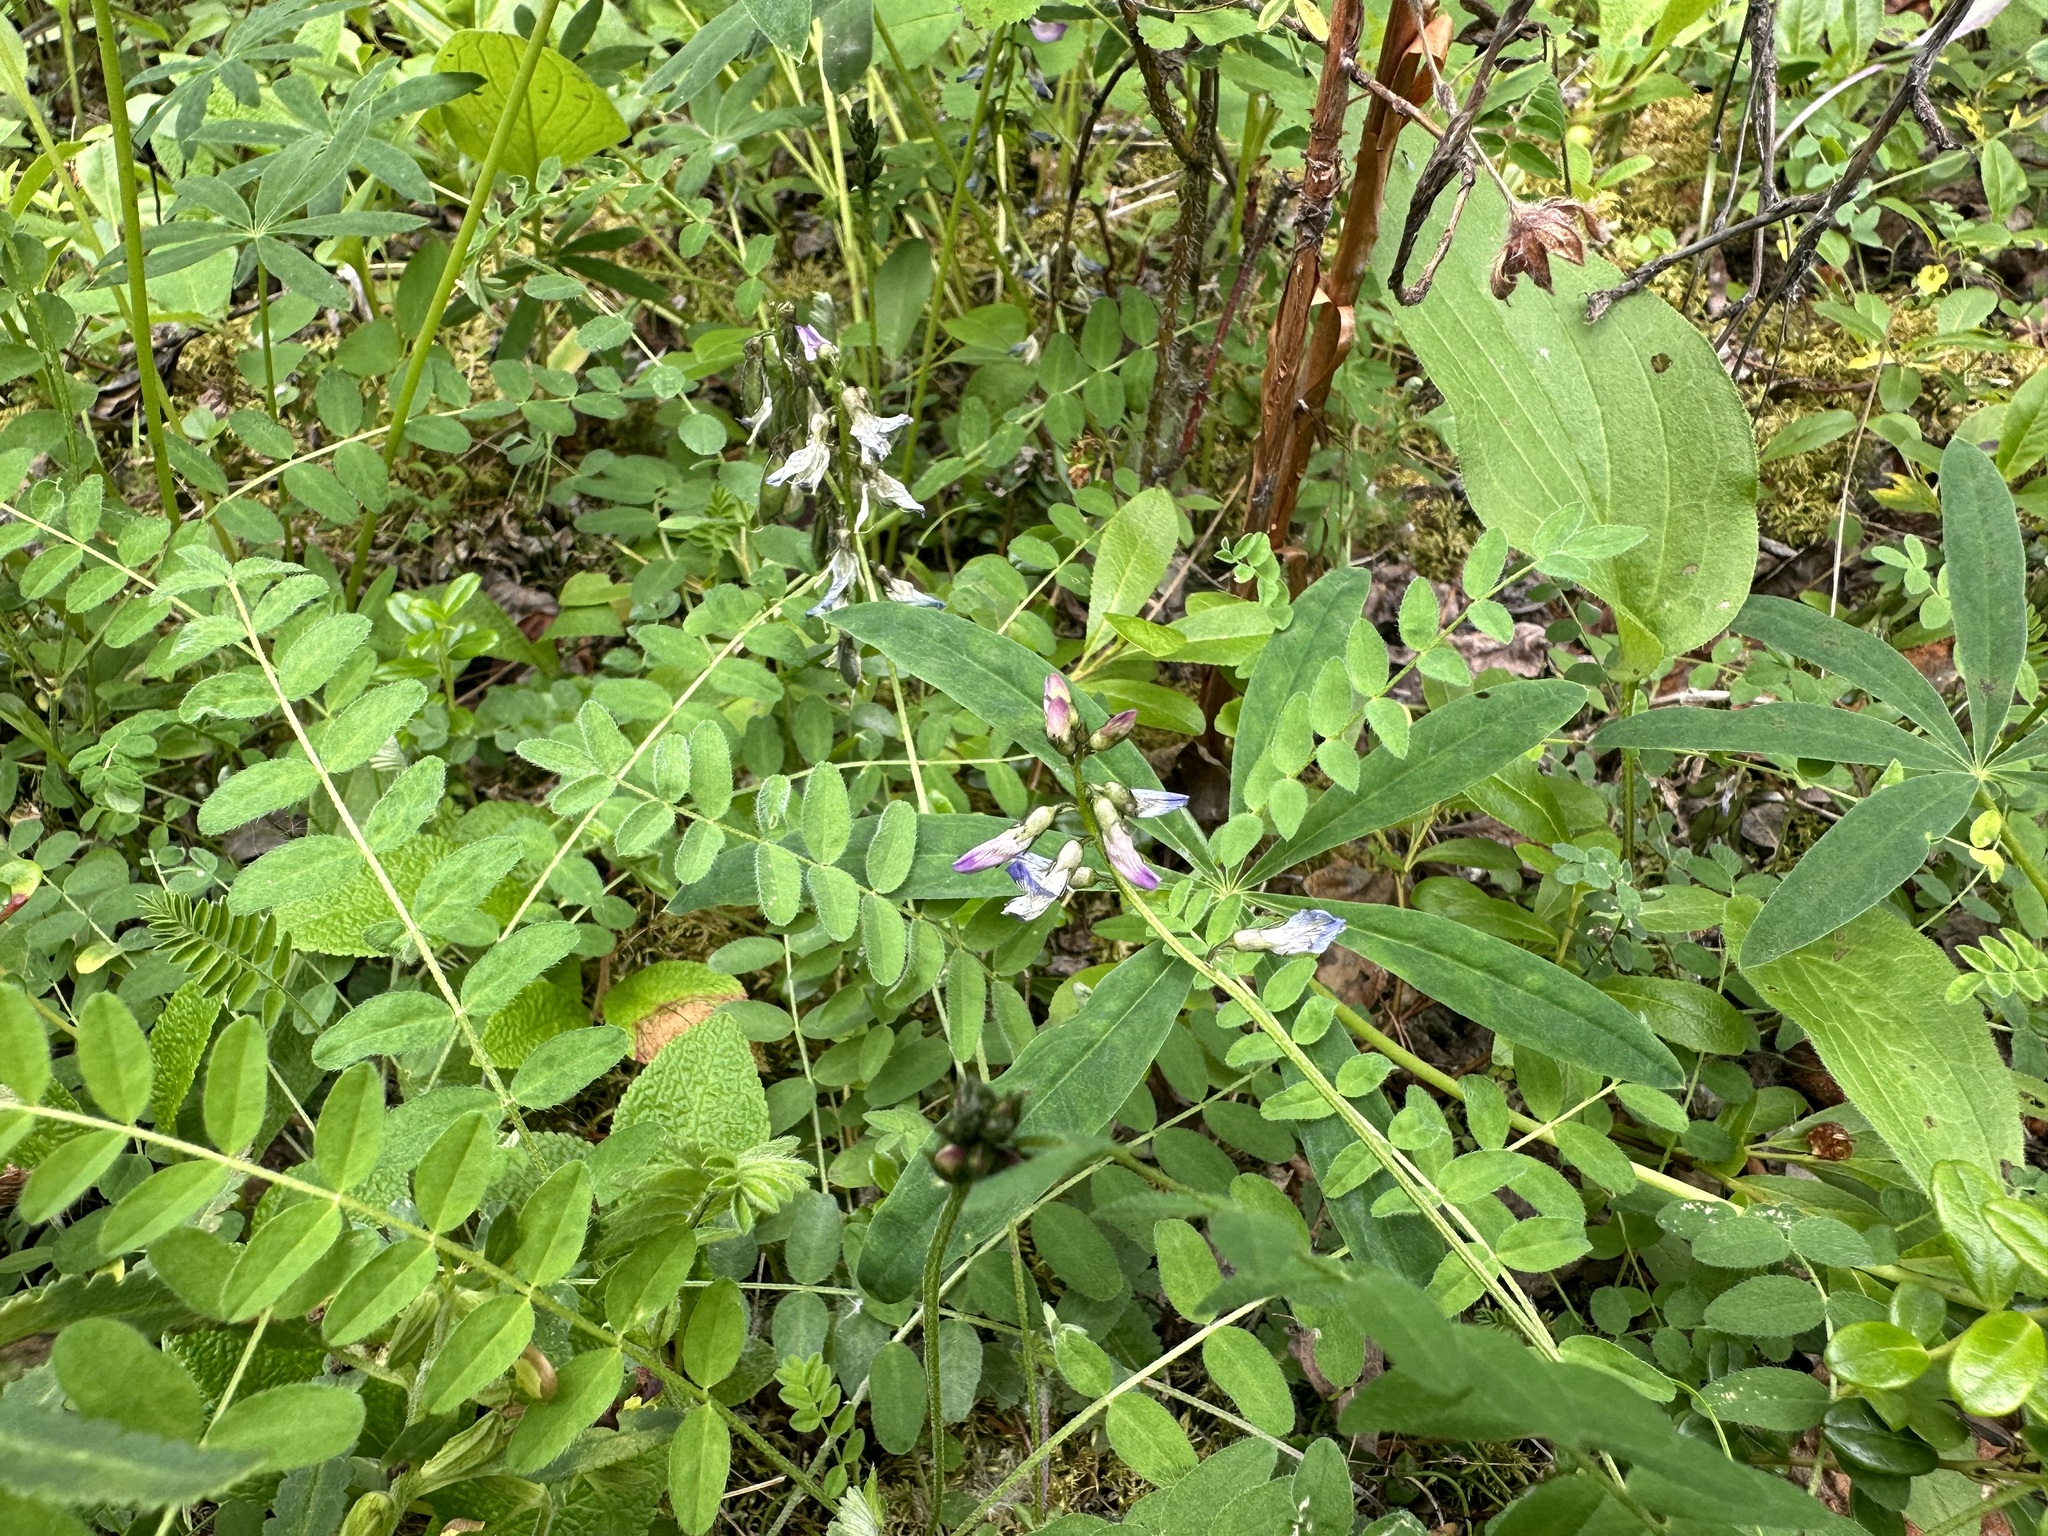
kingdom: Plantae
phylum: Tracheophyta
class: Magnoliopsida
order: Fabales
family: Fabaceae
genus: Astragalus
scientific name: Astragalus alpinus
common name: Alpine milk-vetch
